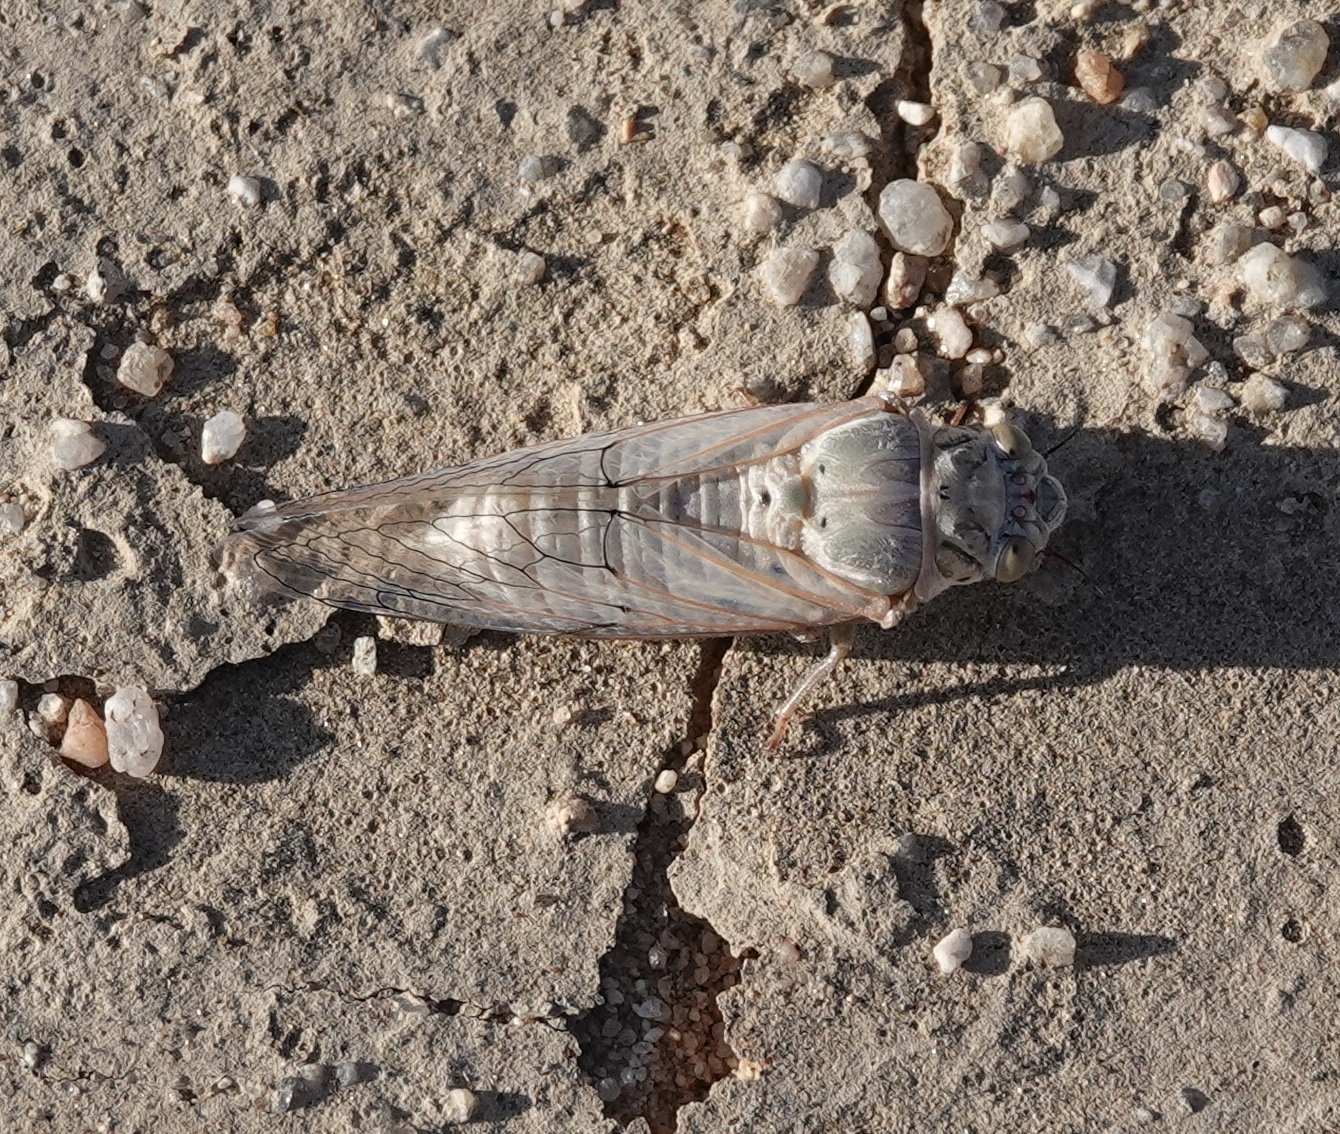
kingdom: Animalia
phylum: Arthropoda
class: Insecta
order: Hemiptera
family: Cicadidae
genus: Okanagodes
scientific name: Okanagodes gracilis
